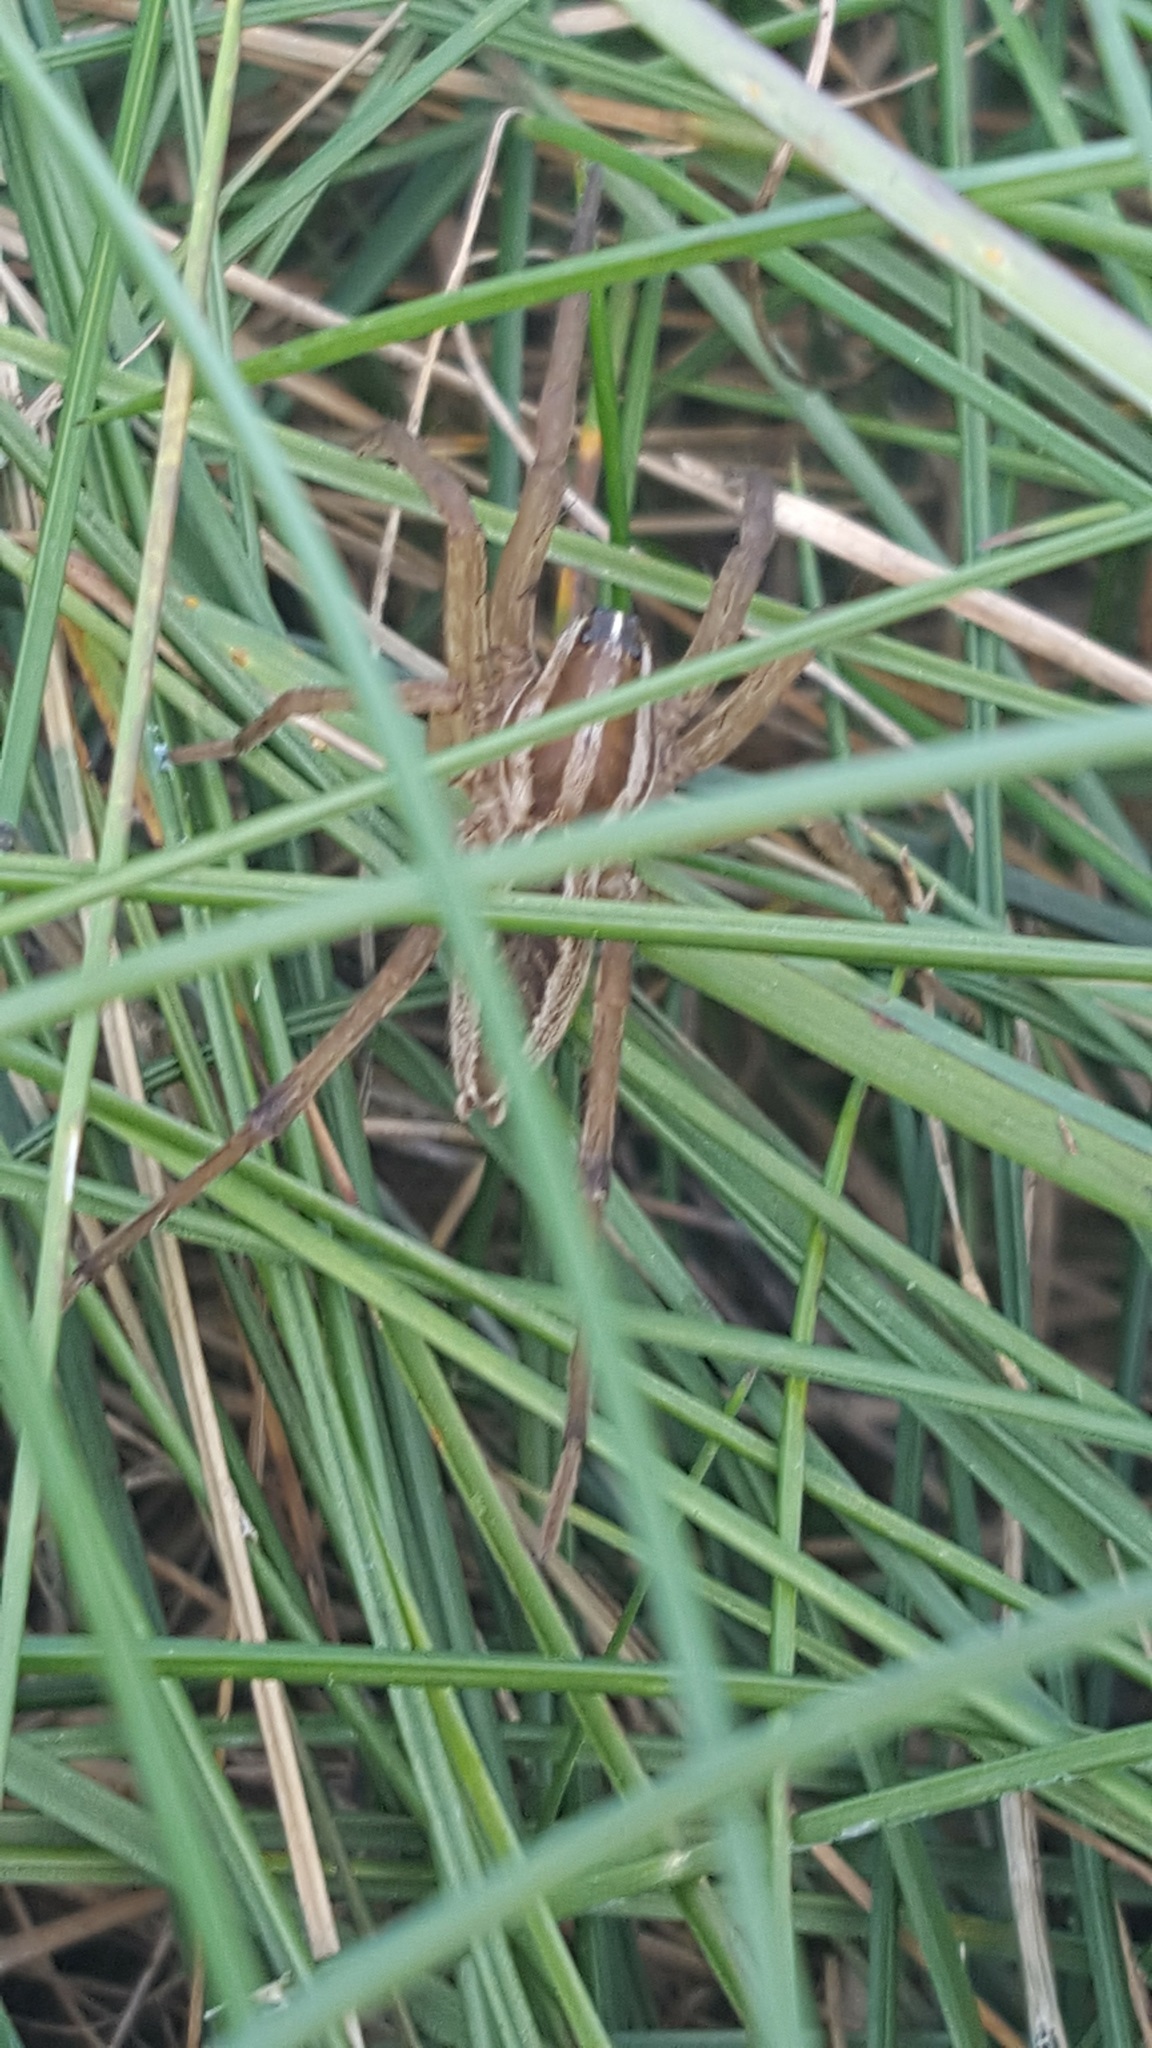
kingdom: Animalia
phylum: Arthropoda
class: Arachnida
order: Araneae
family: Lycosidae
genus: Rabidosa
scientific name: Rabidosa rabida
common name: Rabid wolf spider
